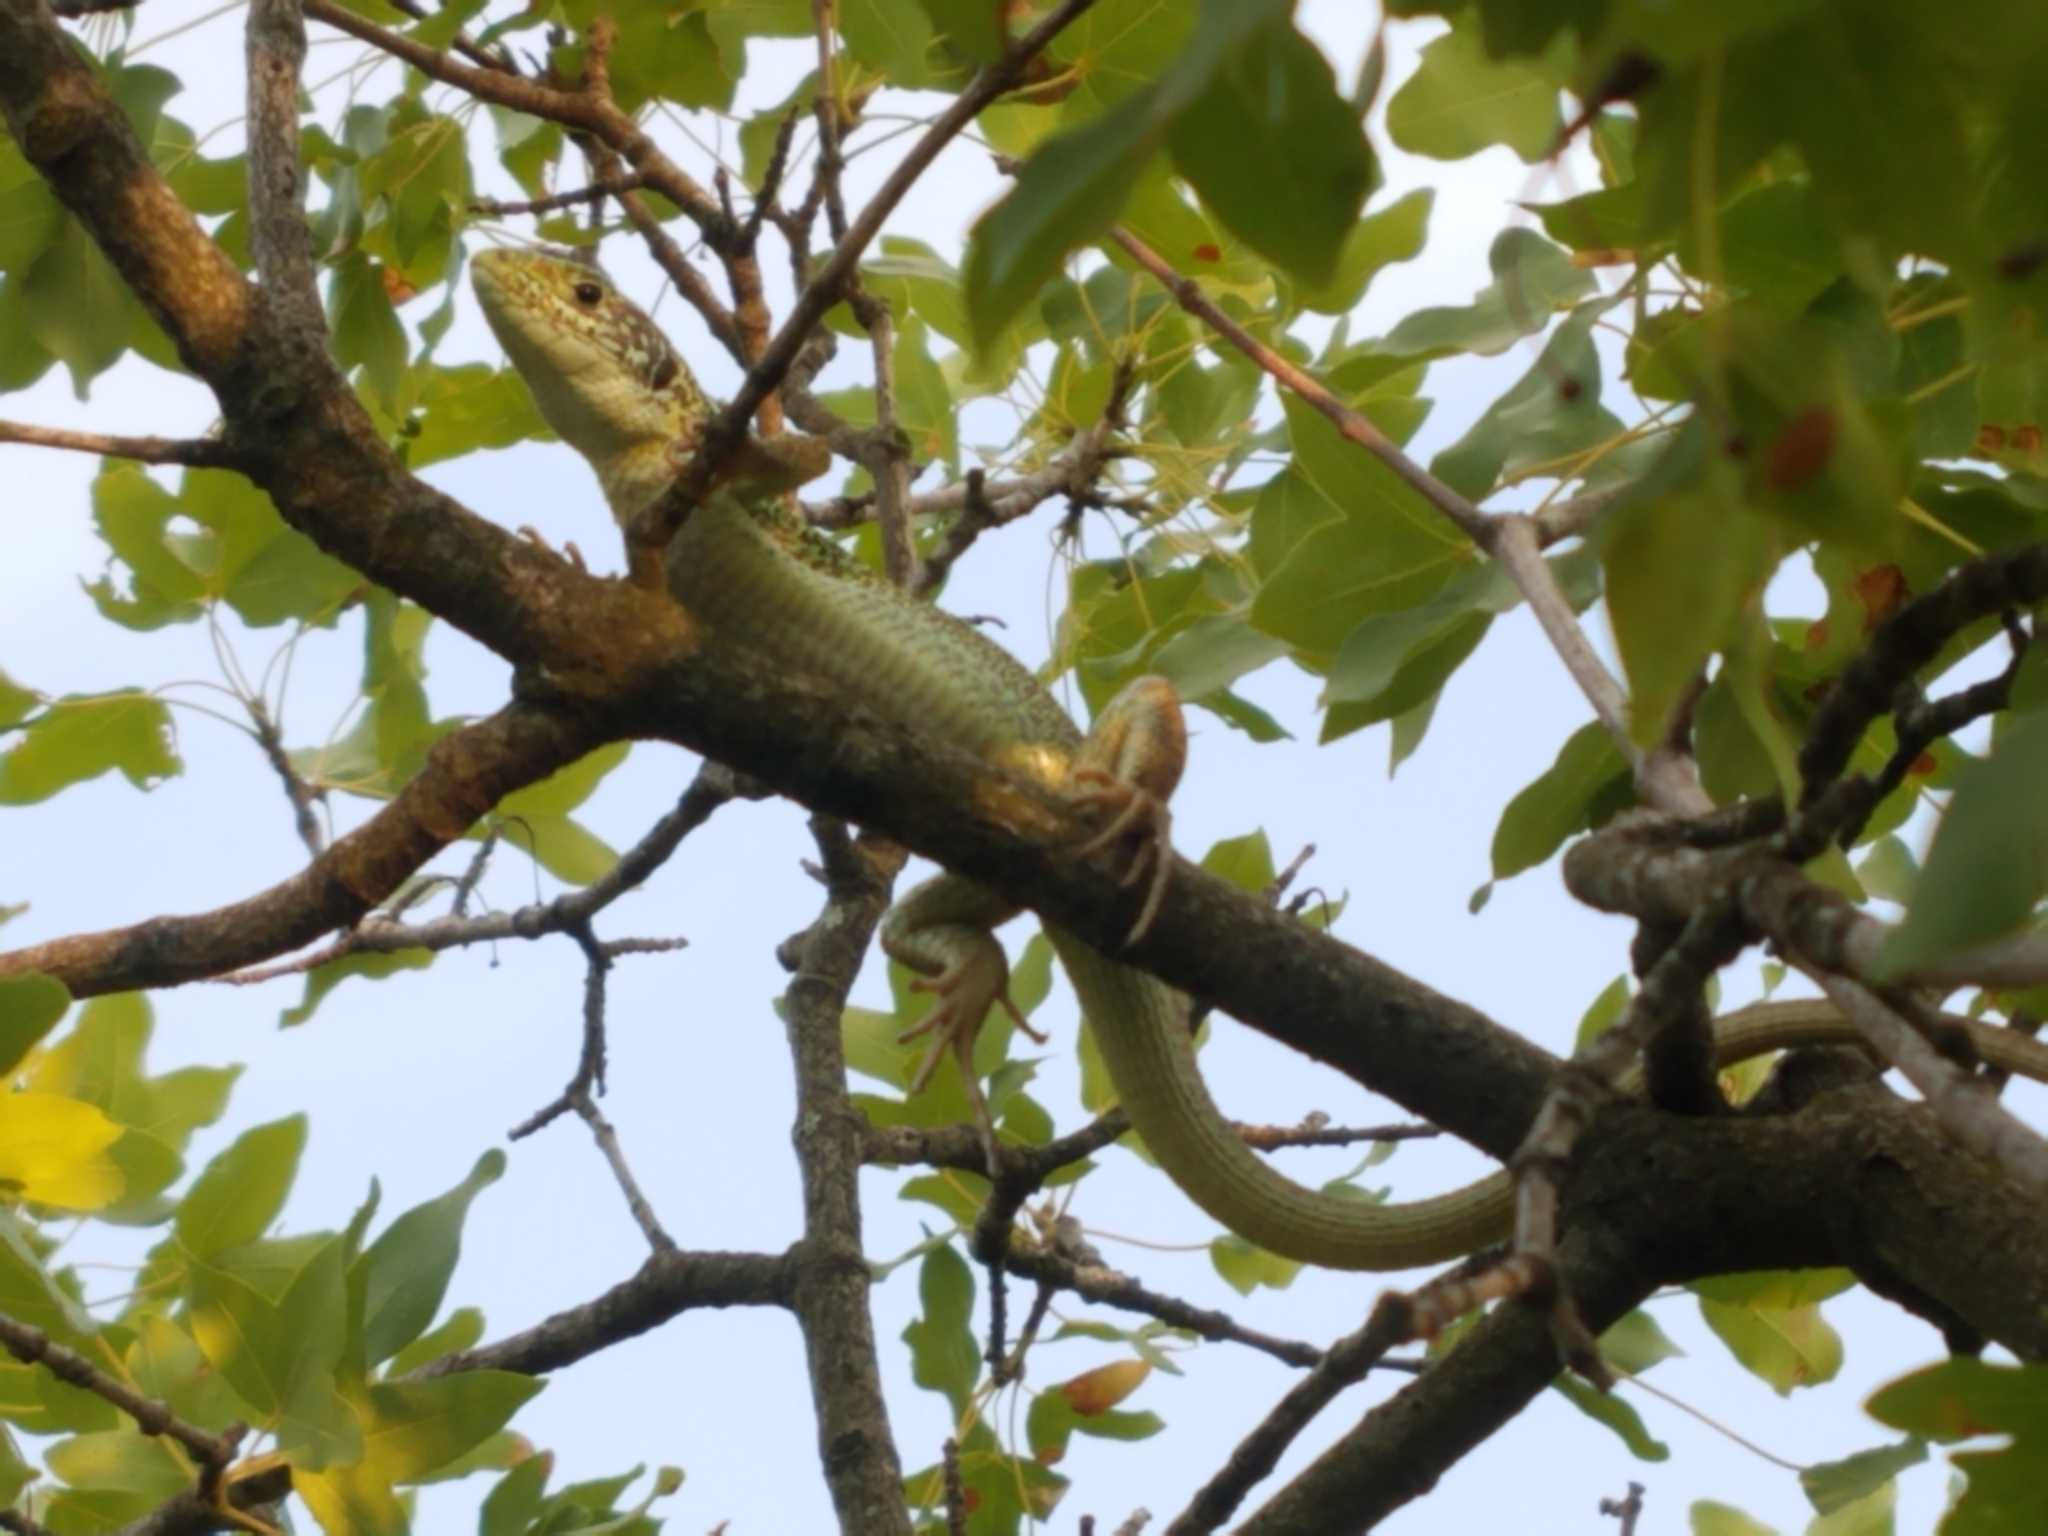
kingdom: Animalia
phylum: Chordata
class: Squamata
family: Lacertidae
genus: Lacerta
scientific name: Lacerta viridis
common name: European green lizard
